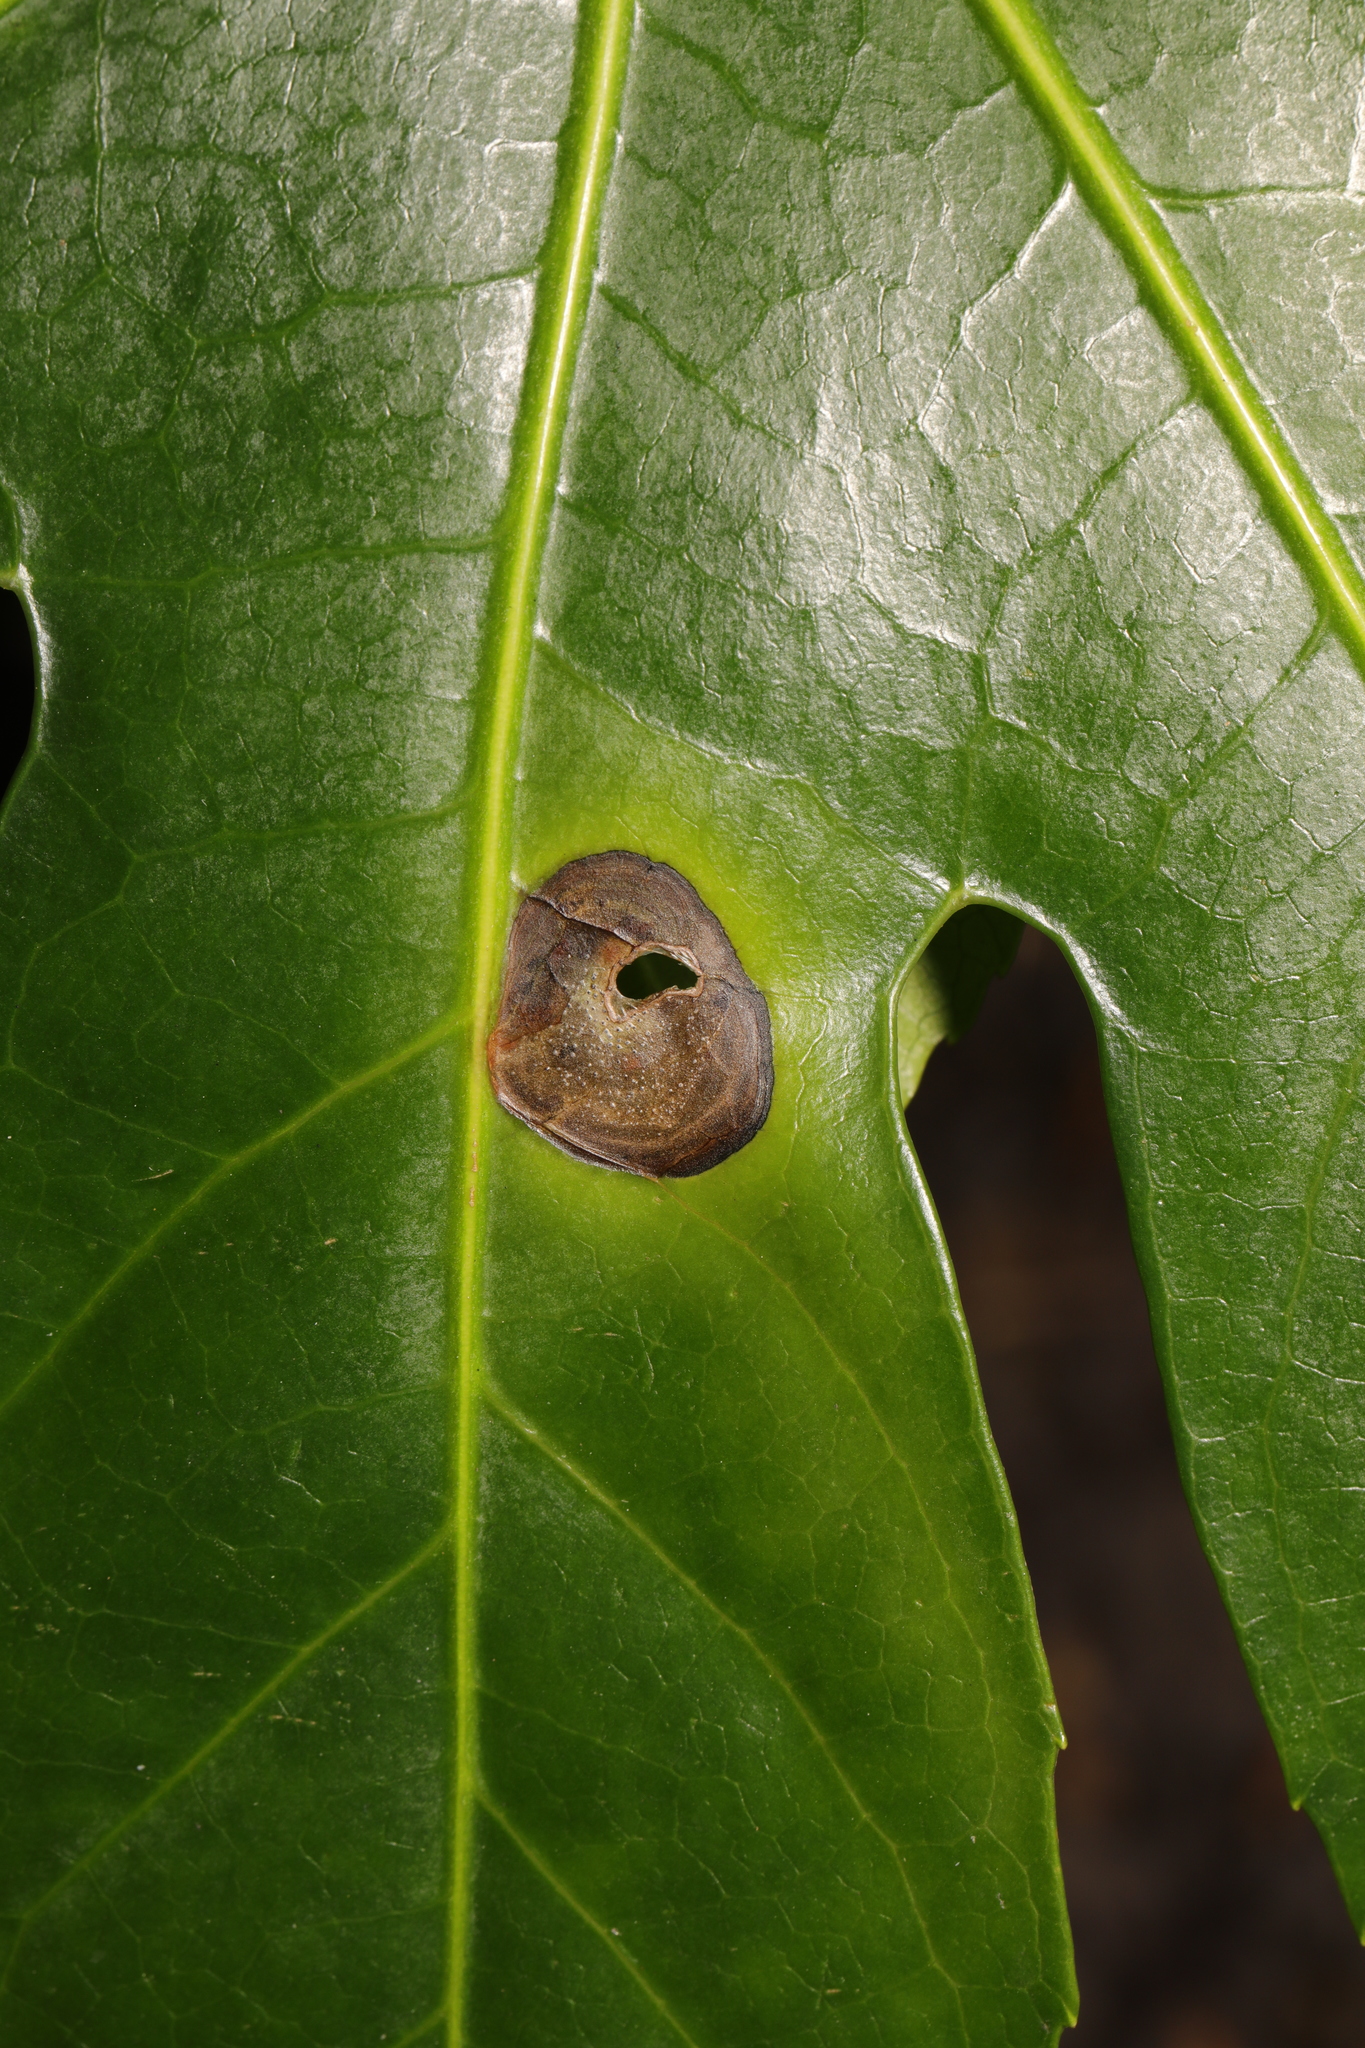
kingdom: Fungi
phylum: Ascomycota
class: Dothideomycetes
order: Pleosporales
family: Didymellaceae
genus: Boeremia
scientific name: Boeremia hedericola
